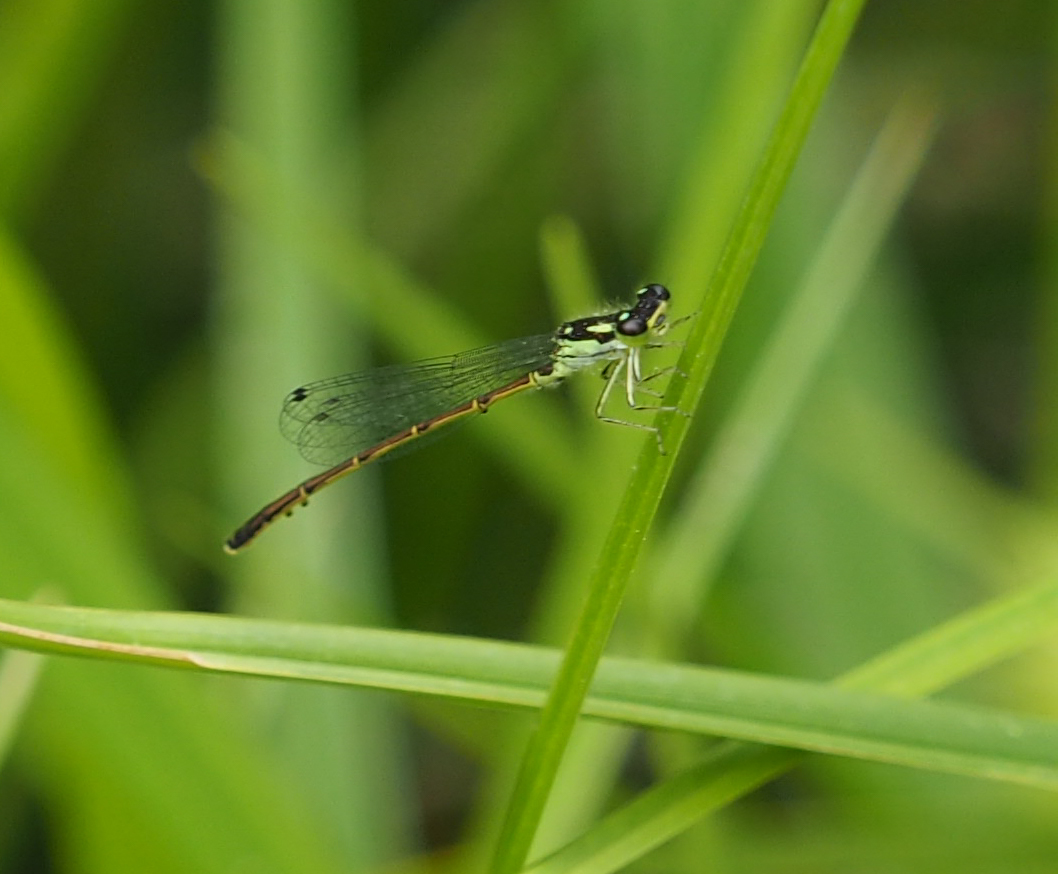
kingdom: Animalia
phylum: Arthropoda
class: Insecta
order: Odonata
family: Coenagrionidae
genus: Ischnura
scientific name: Ischnura posita
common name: Fragile forktail
